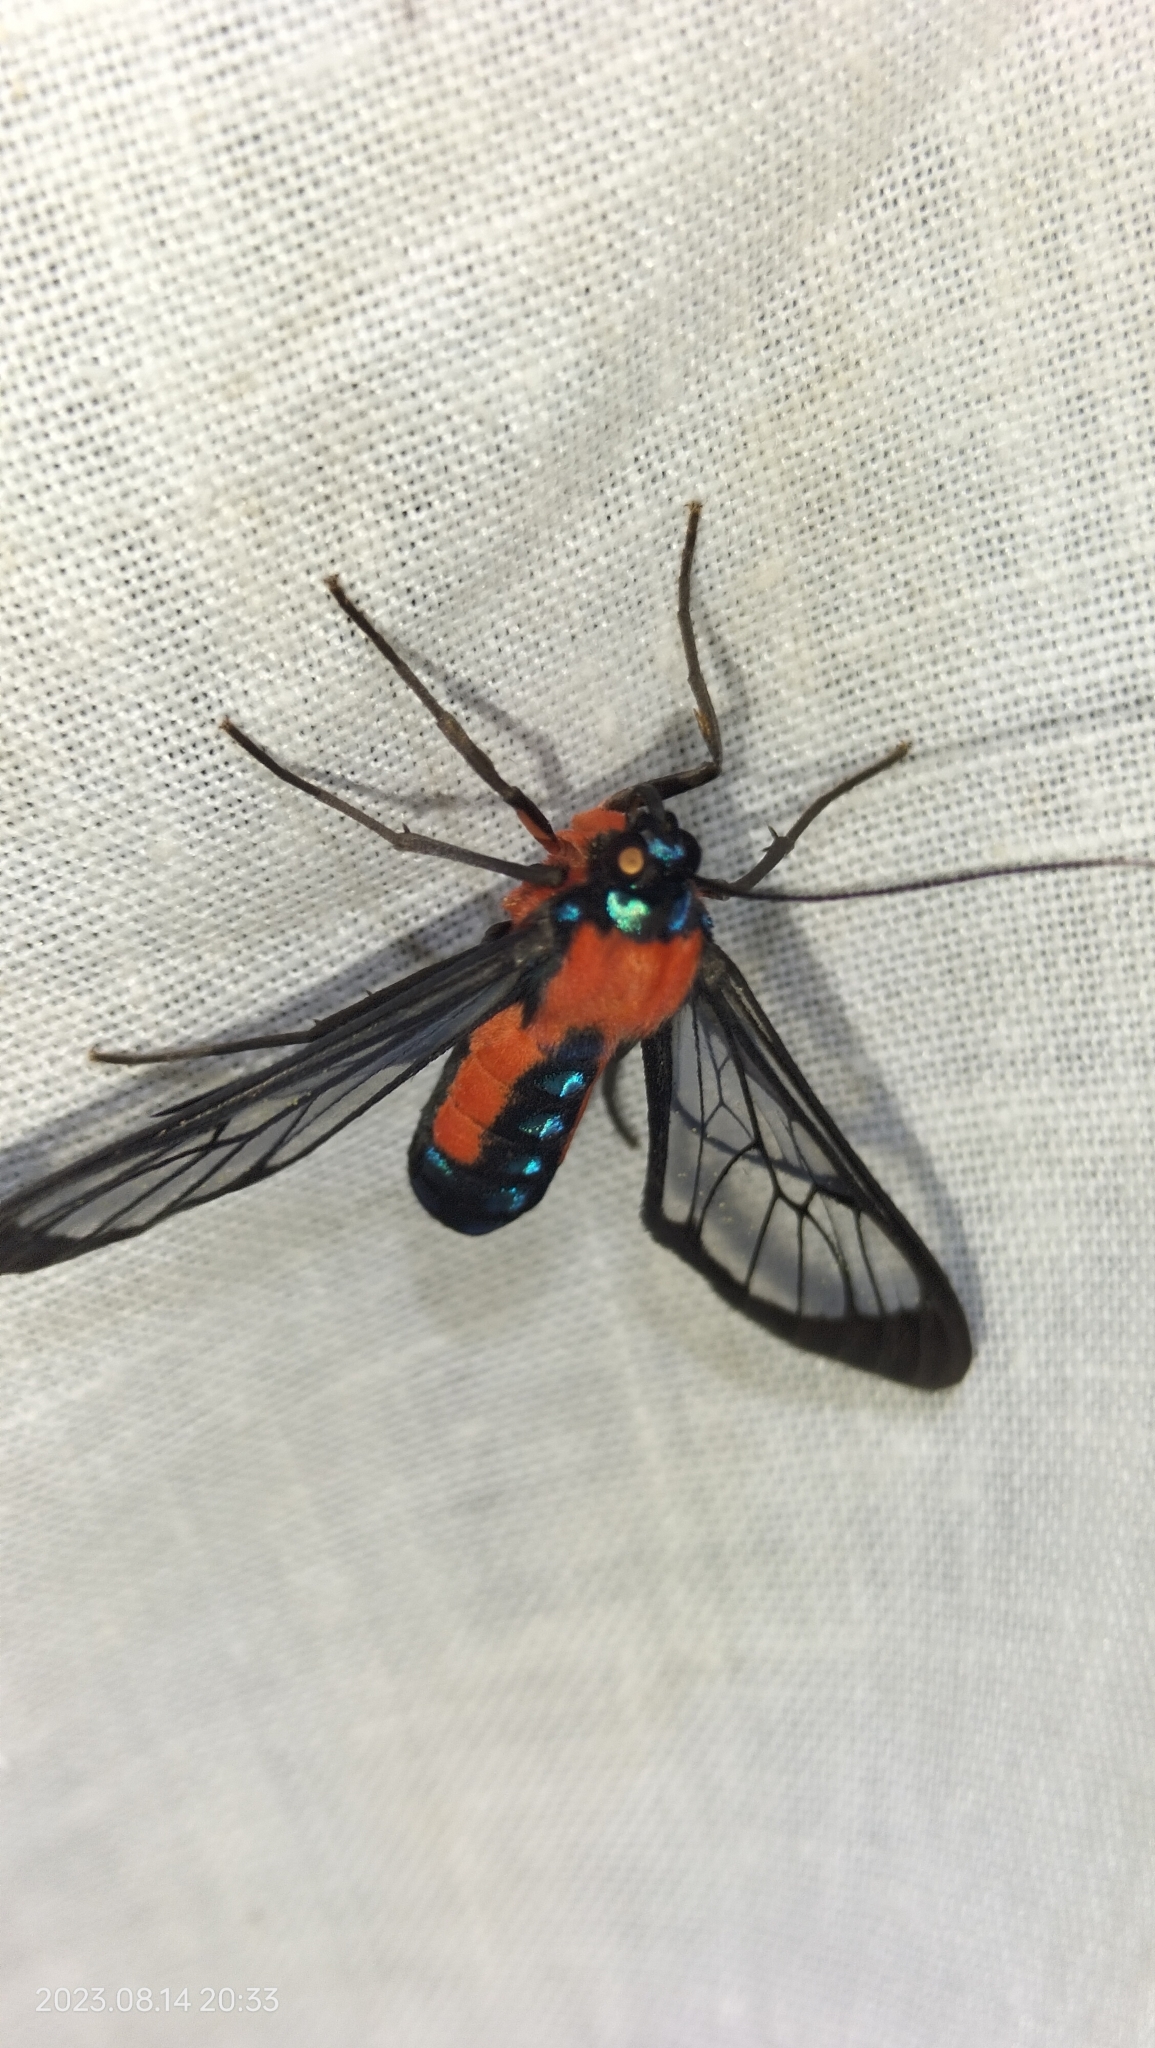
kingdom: Animalia
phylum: Arthropoda
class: Insecta
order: Lepidoptera
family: Erebidae
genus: Cosmosoma
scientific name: Cosmosoma oroyana
